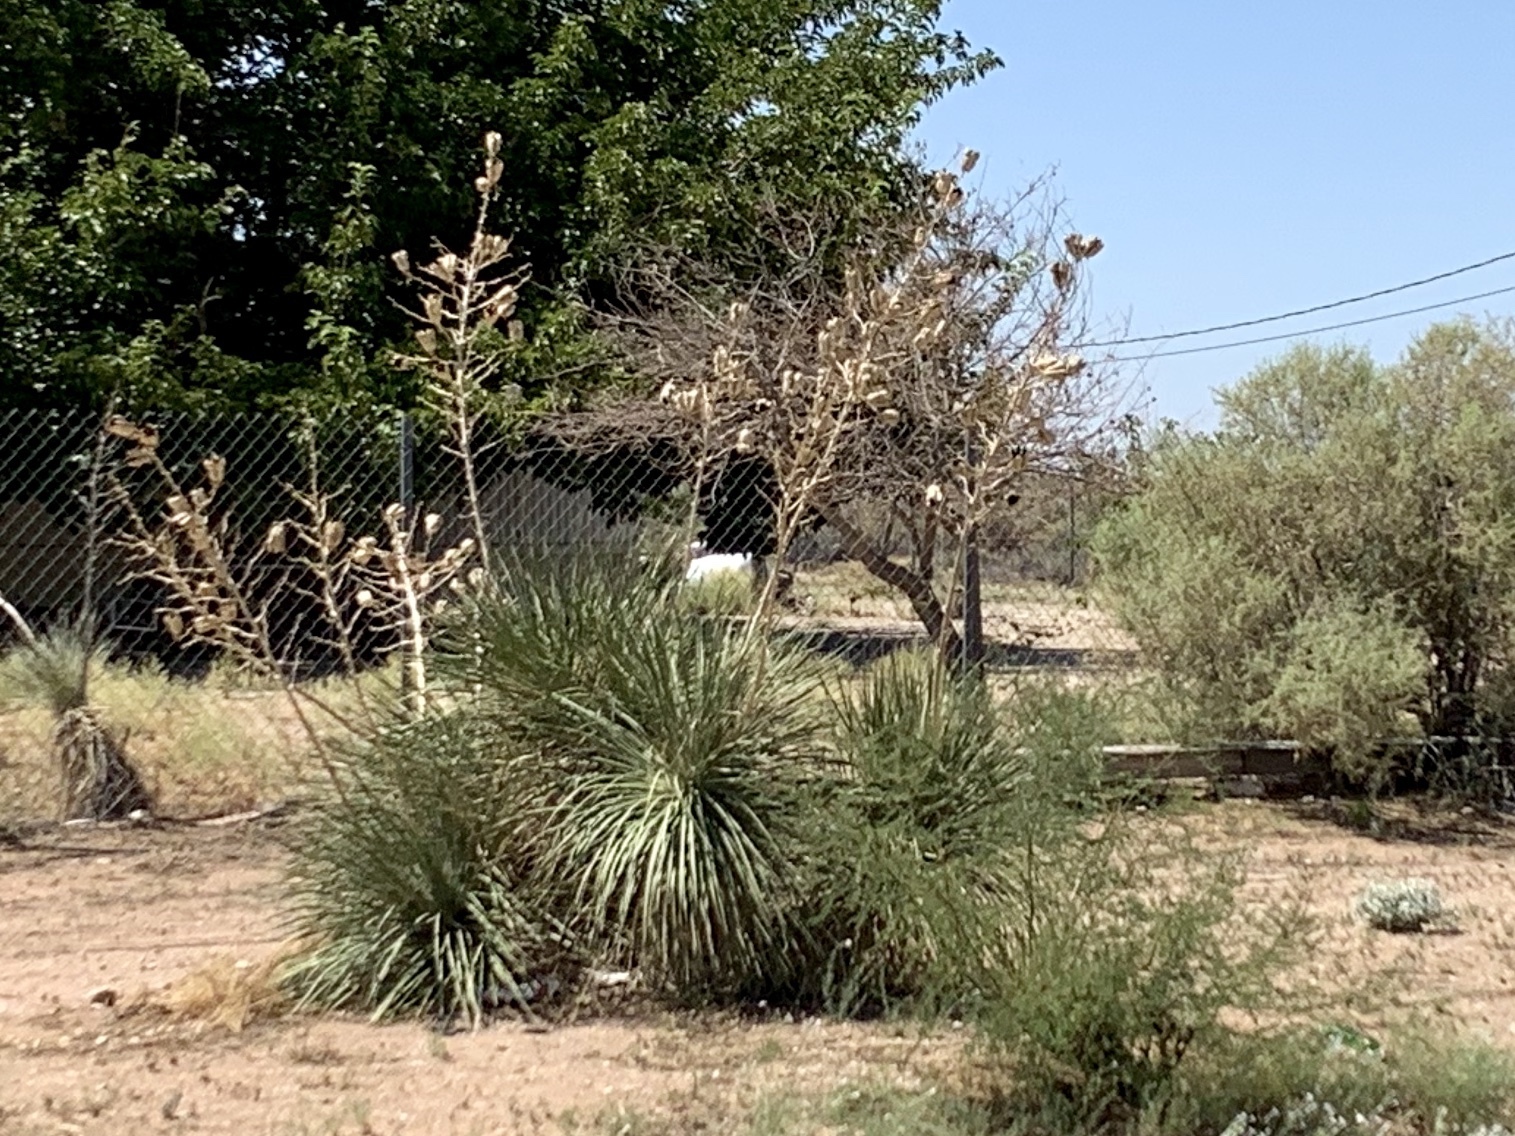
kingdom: Plantae
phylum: Tracheophyta
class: Liliopsida
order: Asparagales
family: Asparagaceae
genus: Yucca
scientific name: Yucca elata
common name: Palmella
